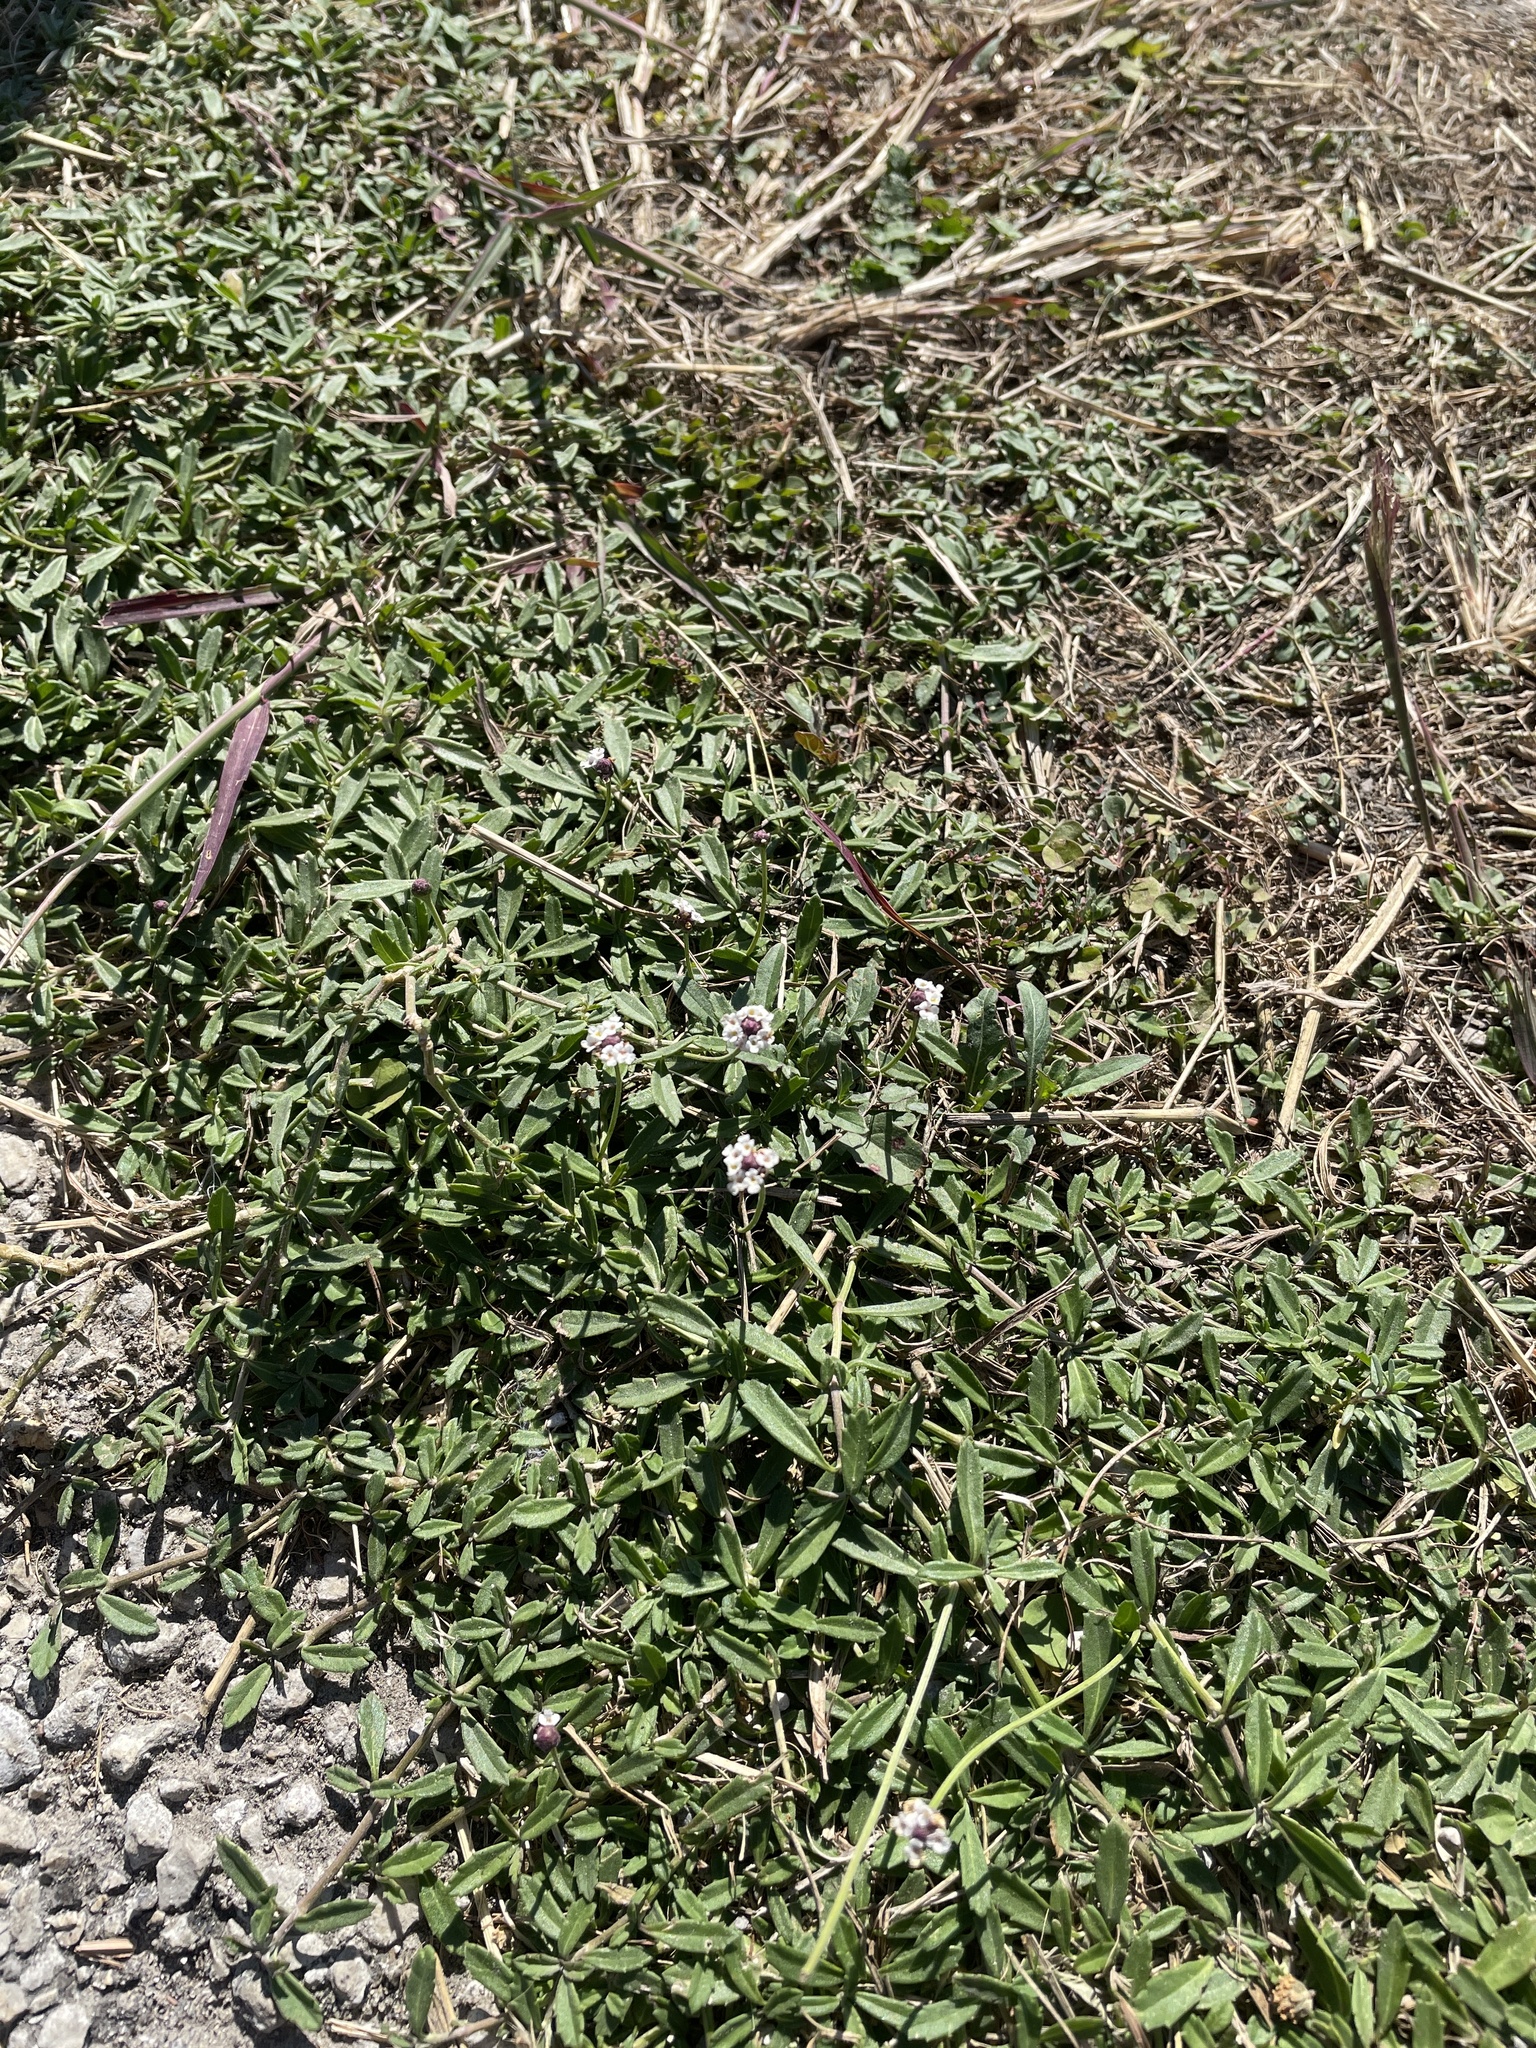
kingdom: Plantae
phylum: Tracheophyta
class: Magnoliopsida
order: Lamiales
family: Verbenaceae
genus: Phyla
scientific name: Phyla nodiflora
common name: Frogfruit
